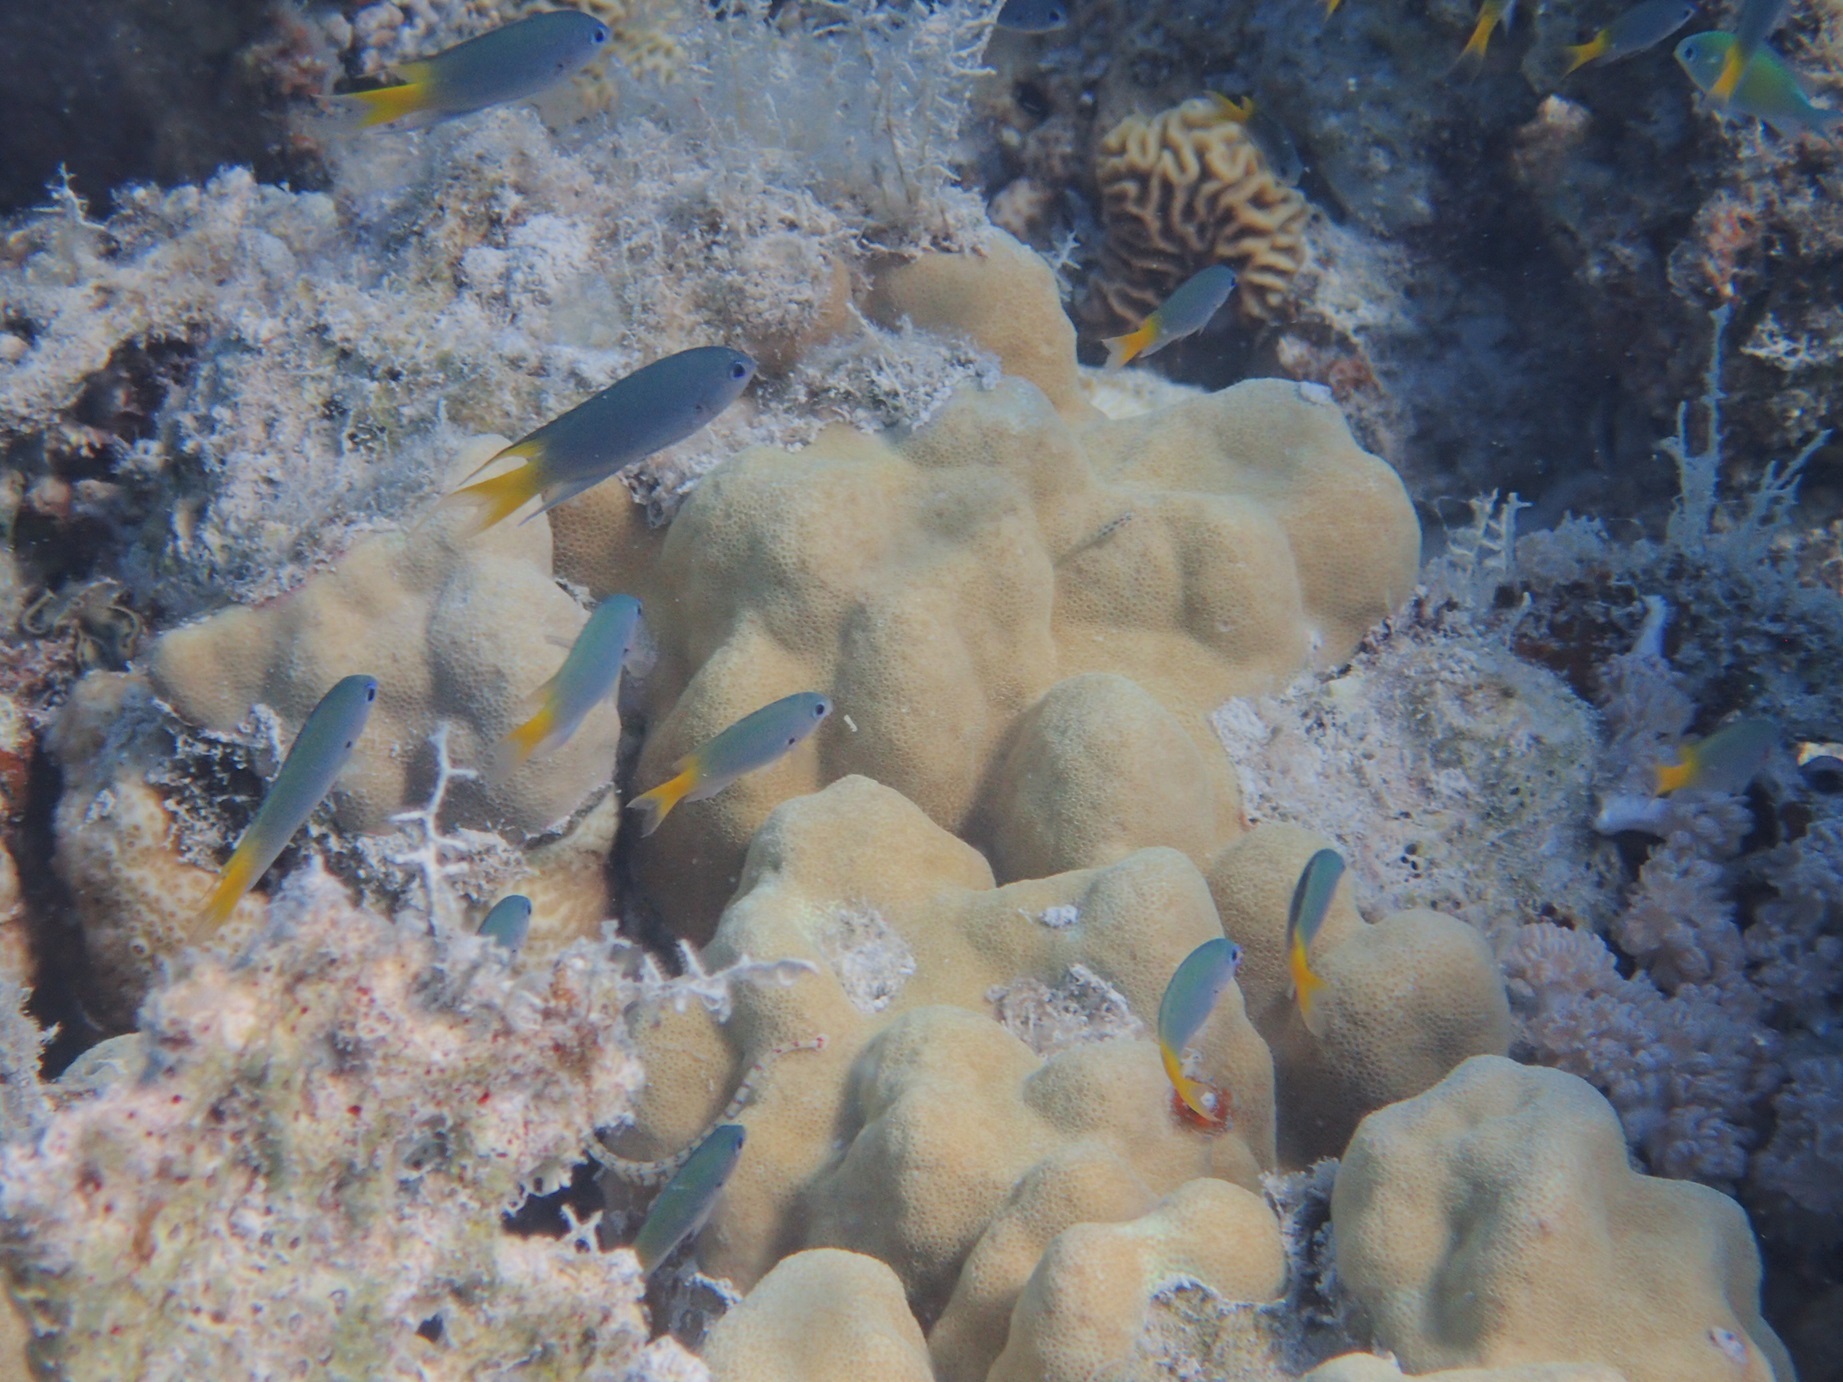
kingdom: Animalia
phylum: Chordata
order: Perciformes
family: Pomacentridae
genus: Neopomacentrus
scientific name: Neopomacentrus flavicauda
